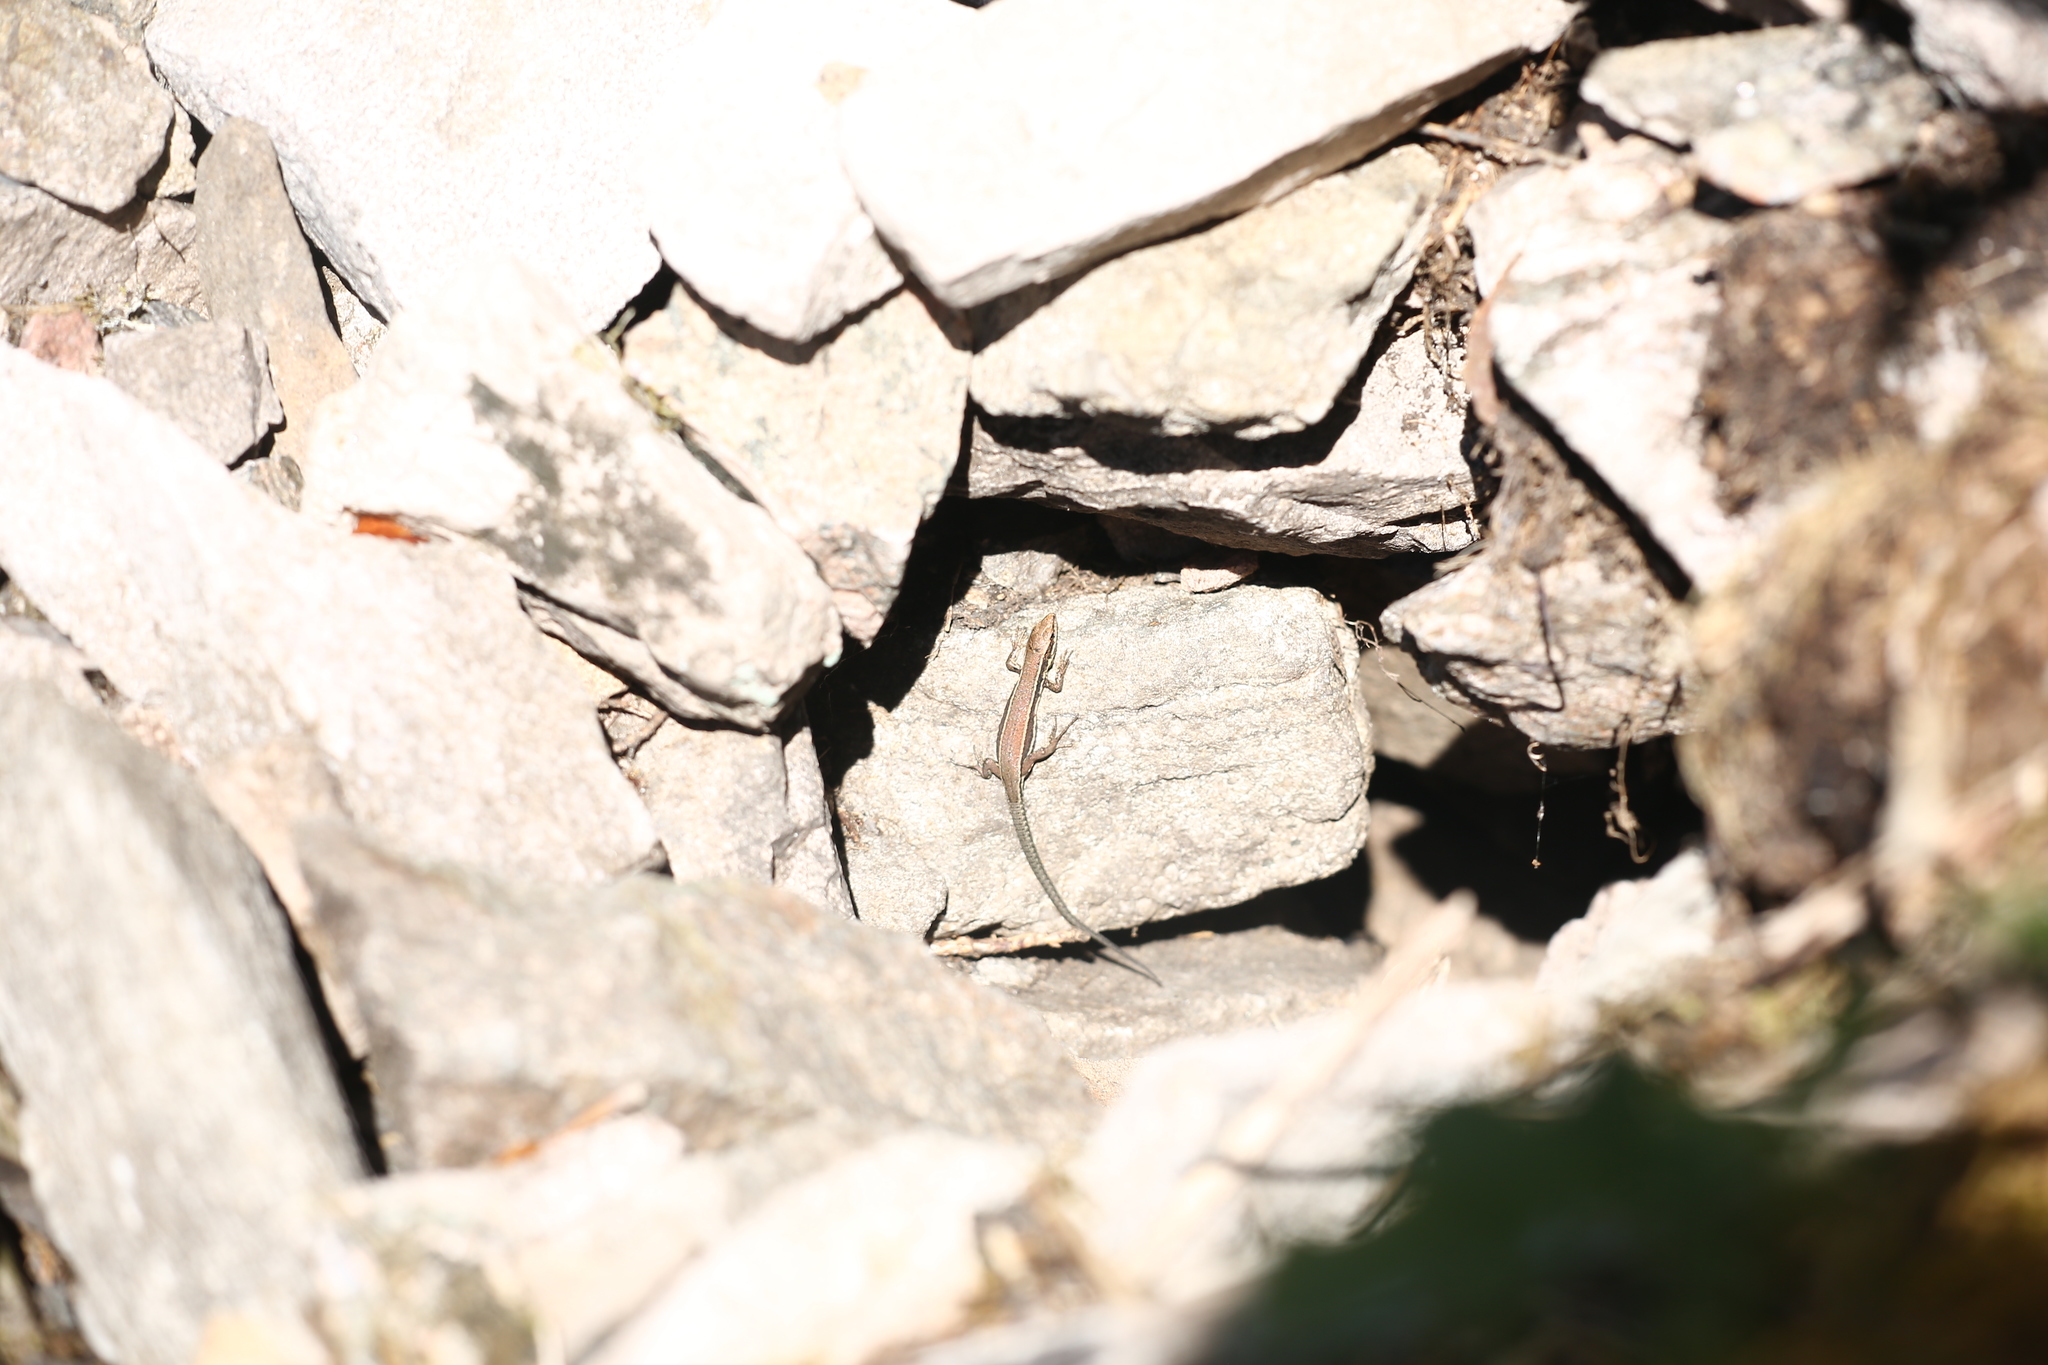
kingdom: Animalia
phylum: Chordata
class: Squamata
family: Lacertidae
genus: Podarcis
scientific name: Podarcis muralis
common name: Common wall lizard
